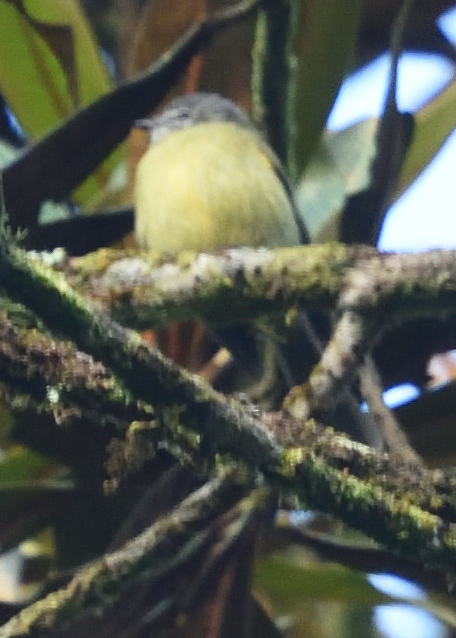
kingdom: Animalia
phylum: Chordata
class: Aves
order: Passeriformes
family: Tyrannidae
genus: Phyllomyias
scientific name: Phyllomyias plumbeiceps
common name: Plumbeous-crowned tyrannulet
